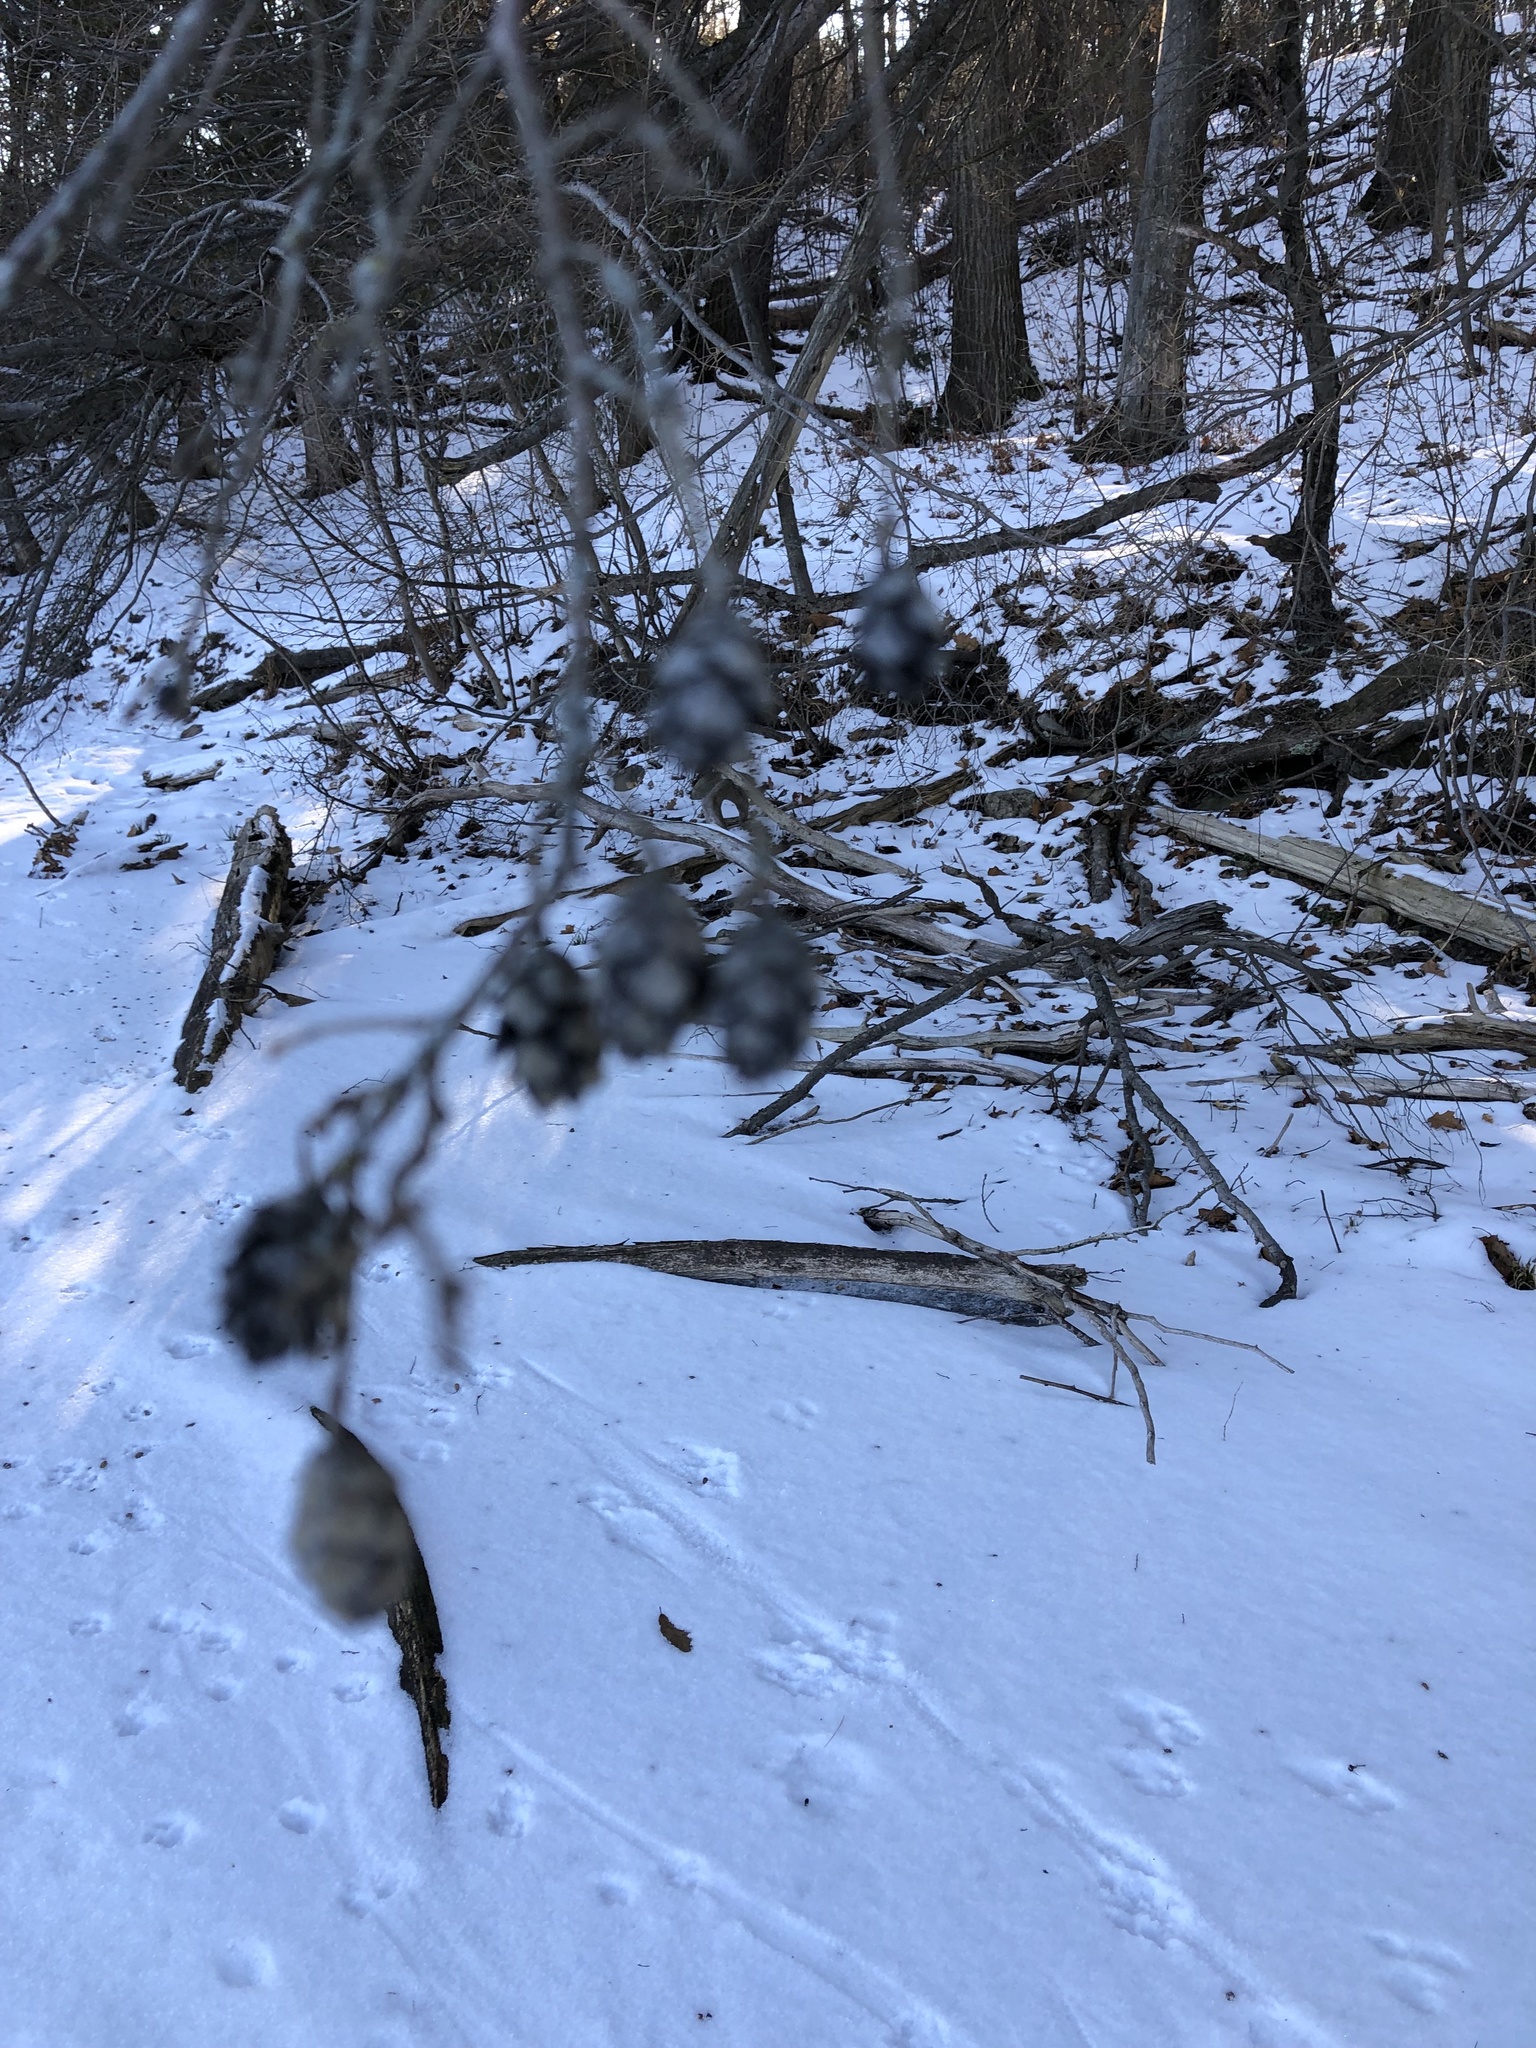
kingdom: Plantae
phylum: Tracheophyta
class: Pinopsida
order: Pinales
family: Pinaceae
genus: Tsuga
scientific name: Tsuga canadensis
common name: Eastern hemlock
